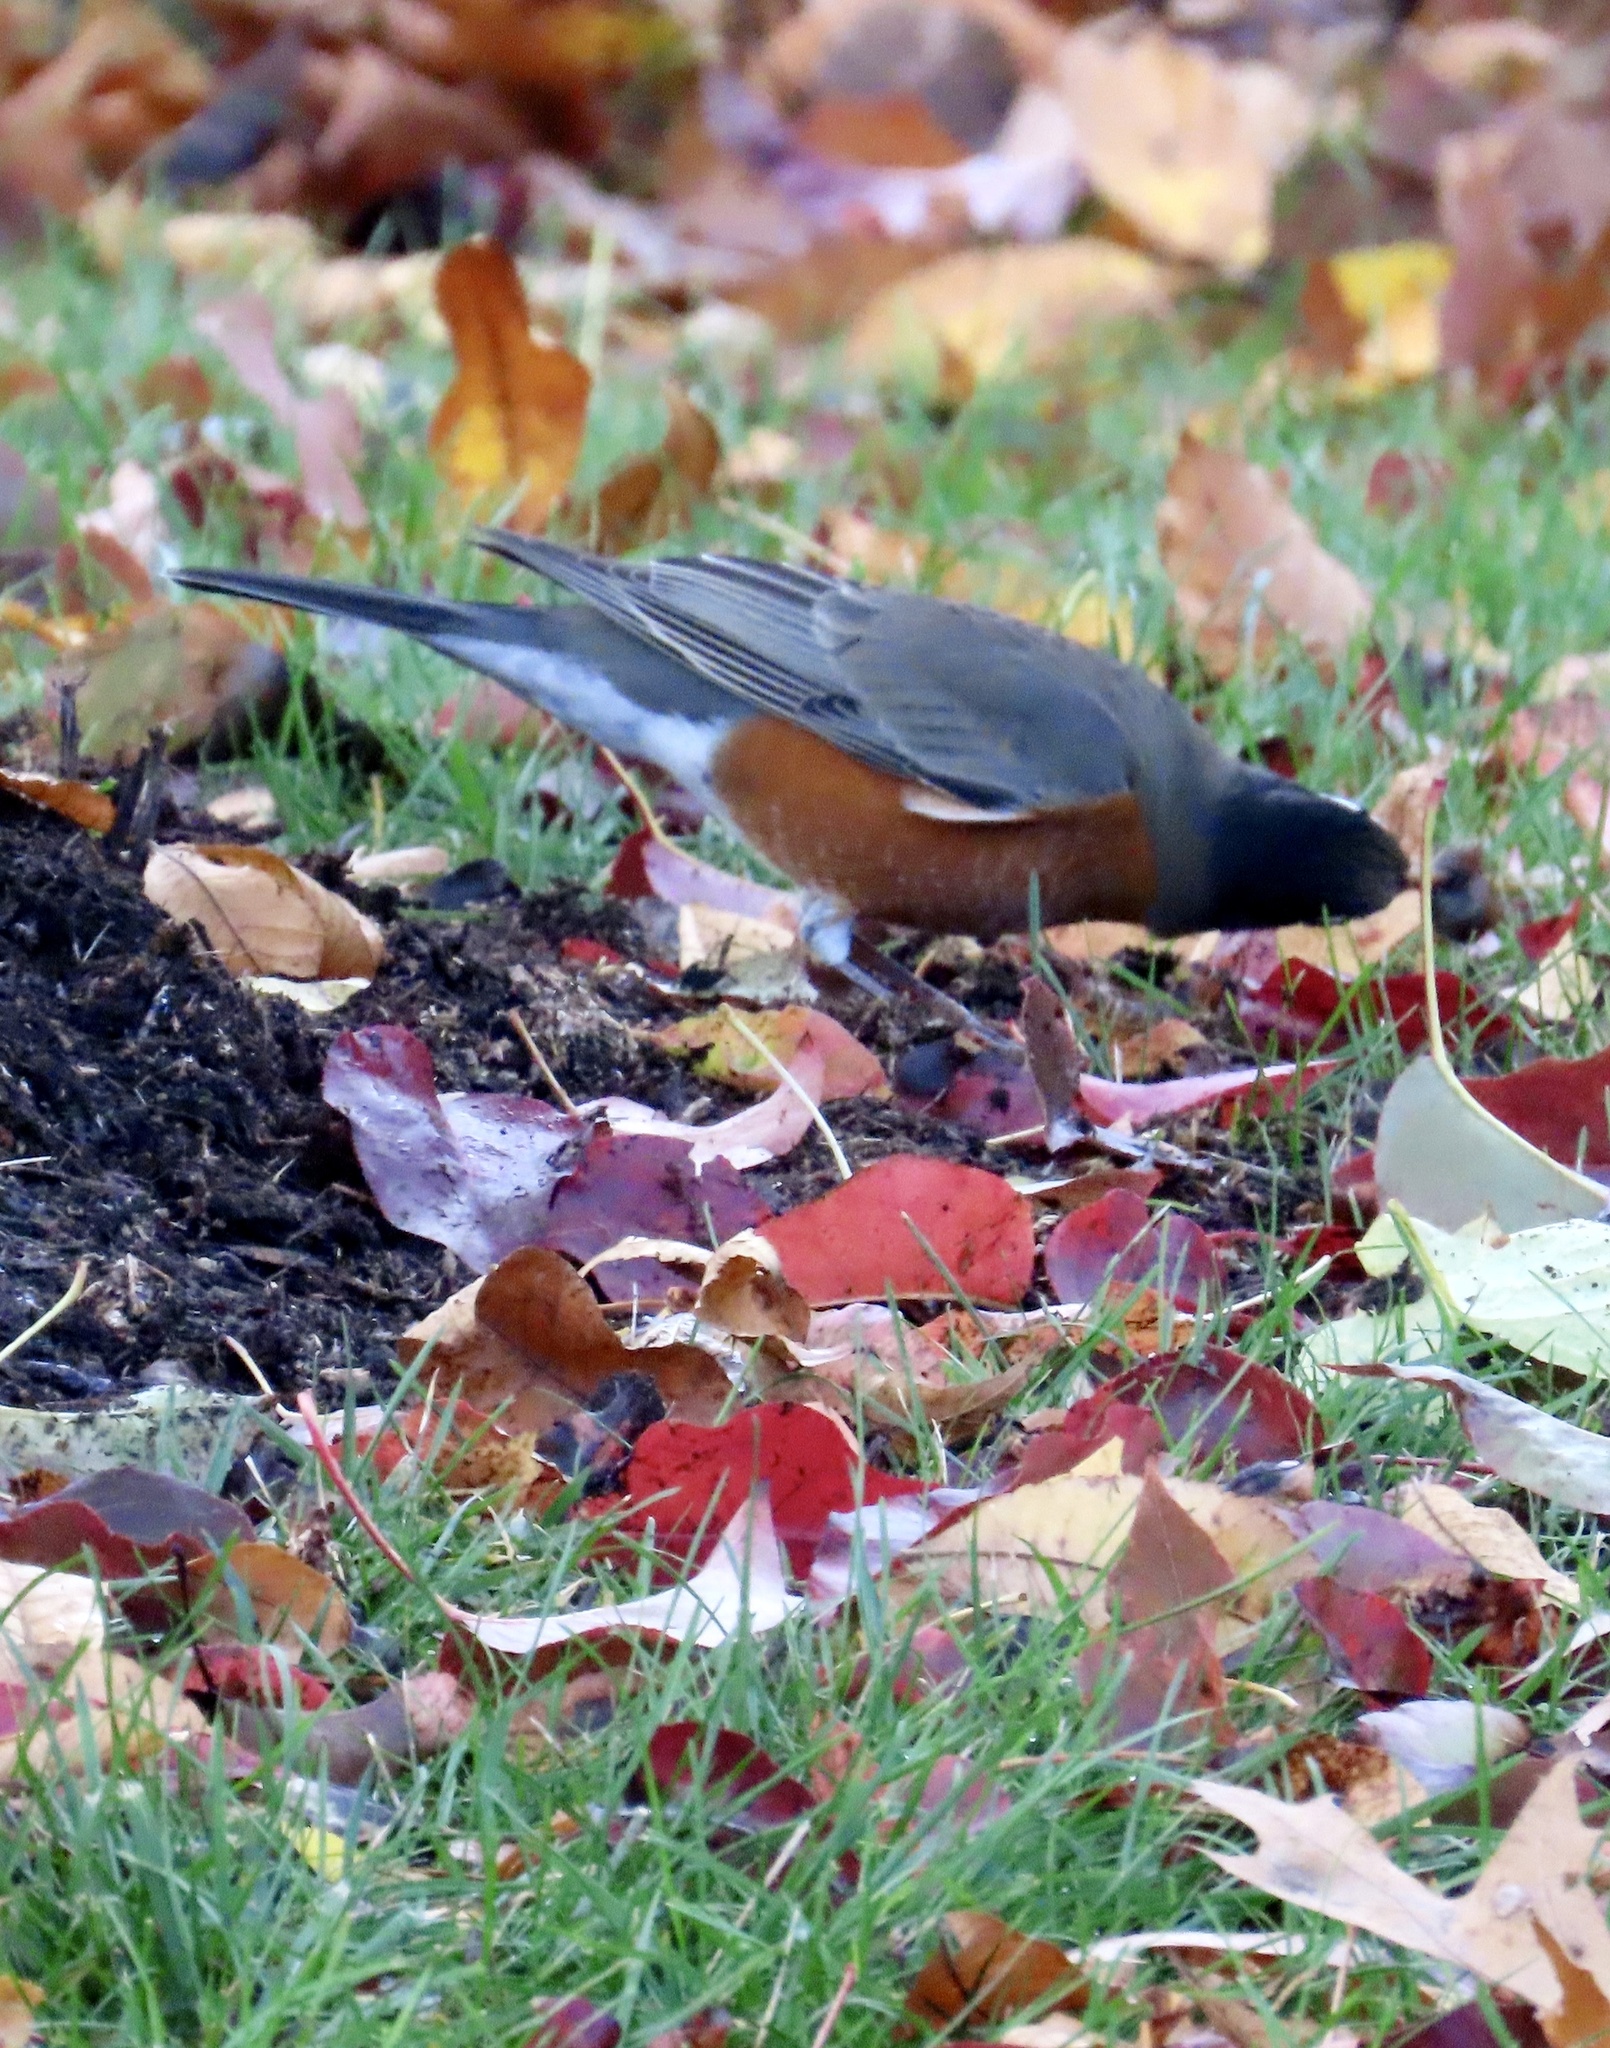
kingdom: Animalia
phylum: Chordata
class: Aves
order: Passeriformes
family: Turdidae
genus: Turdus
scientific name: Turdus migratorius
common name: American robin
